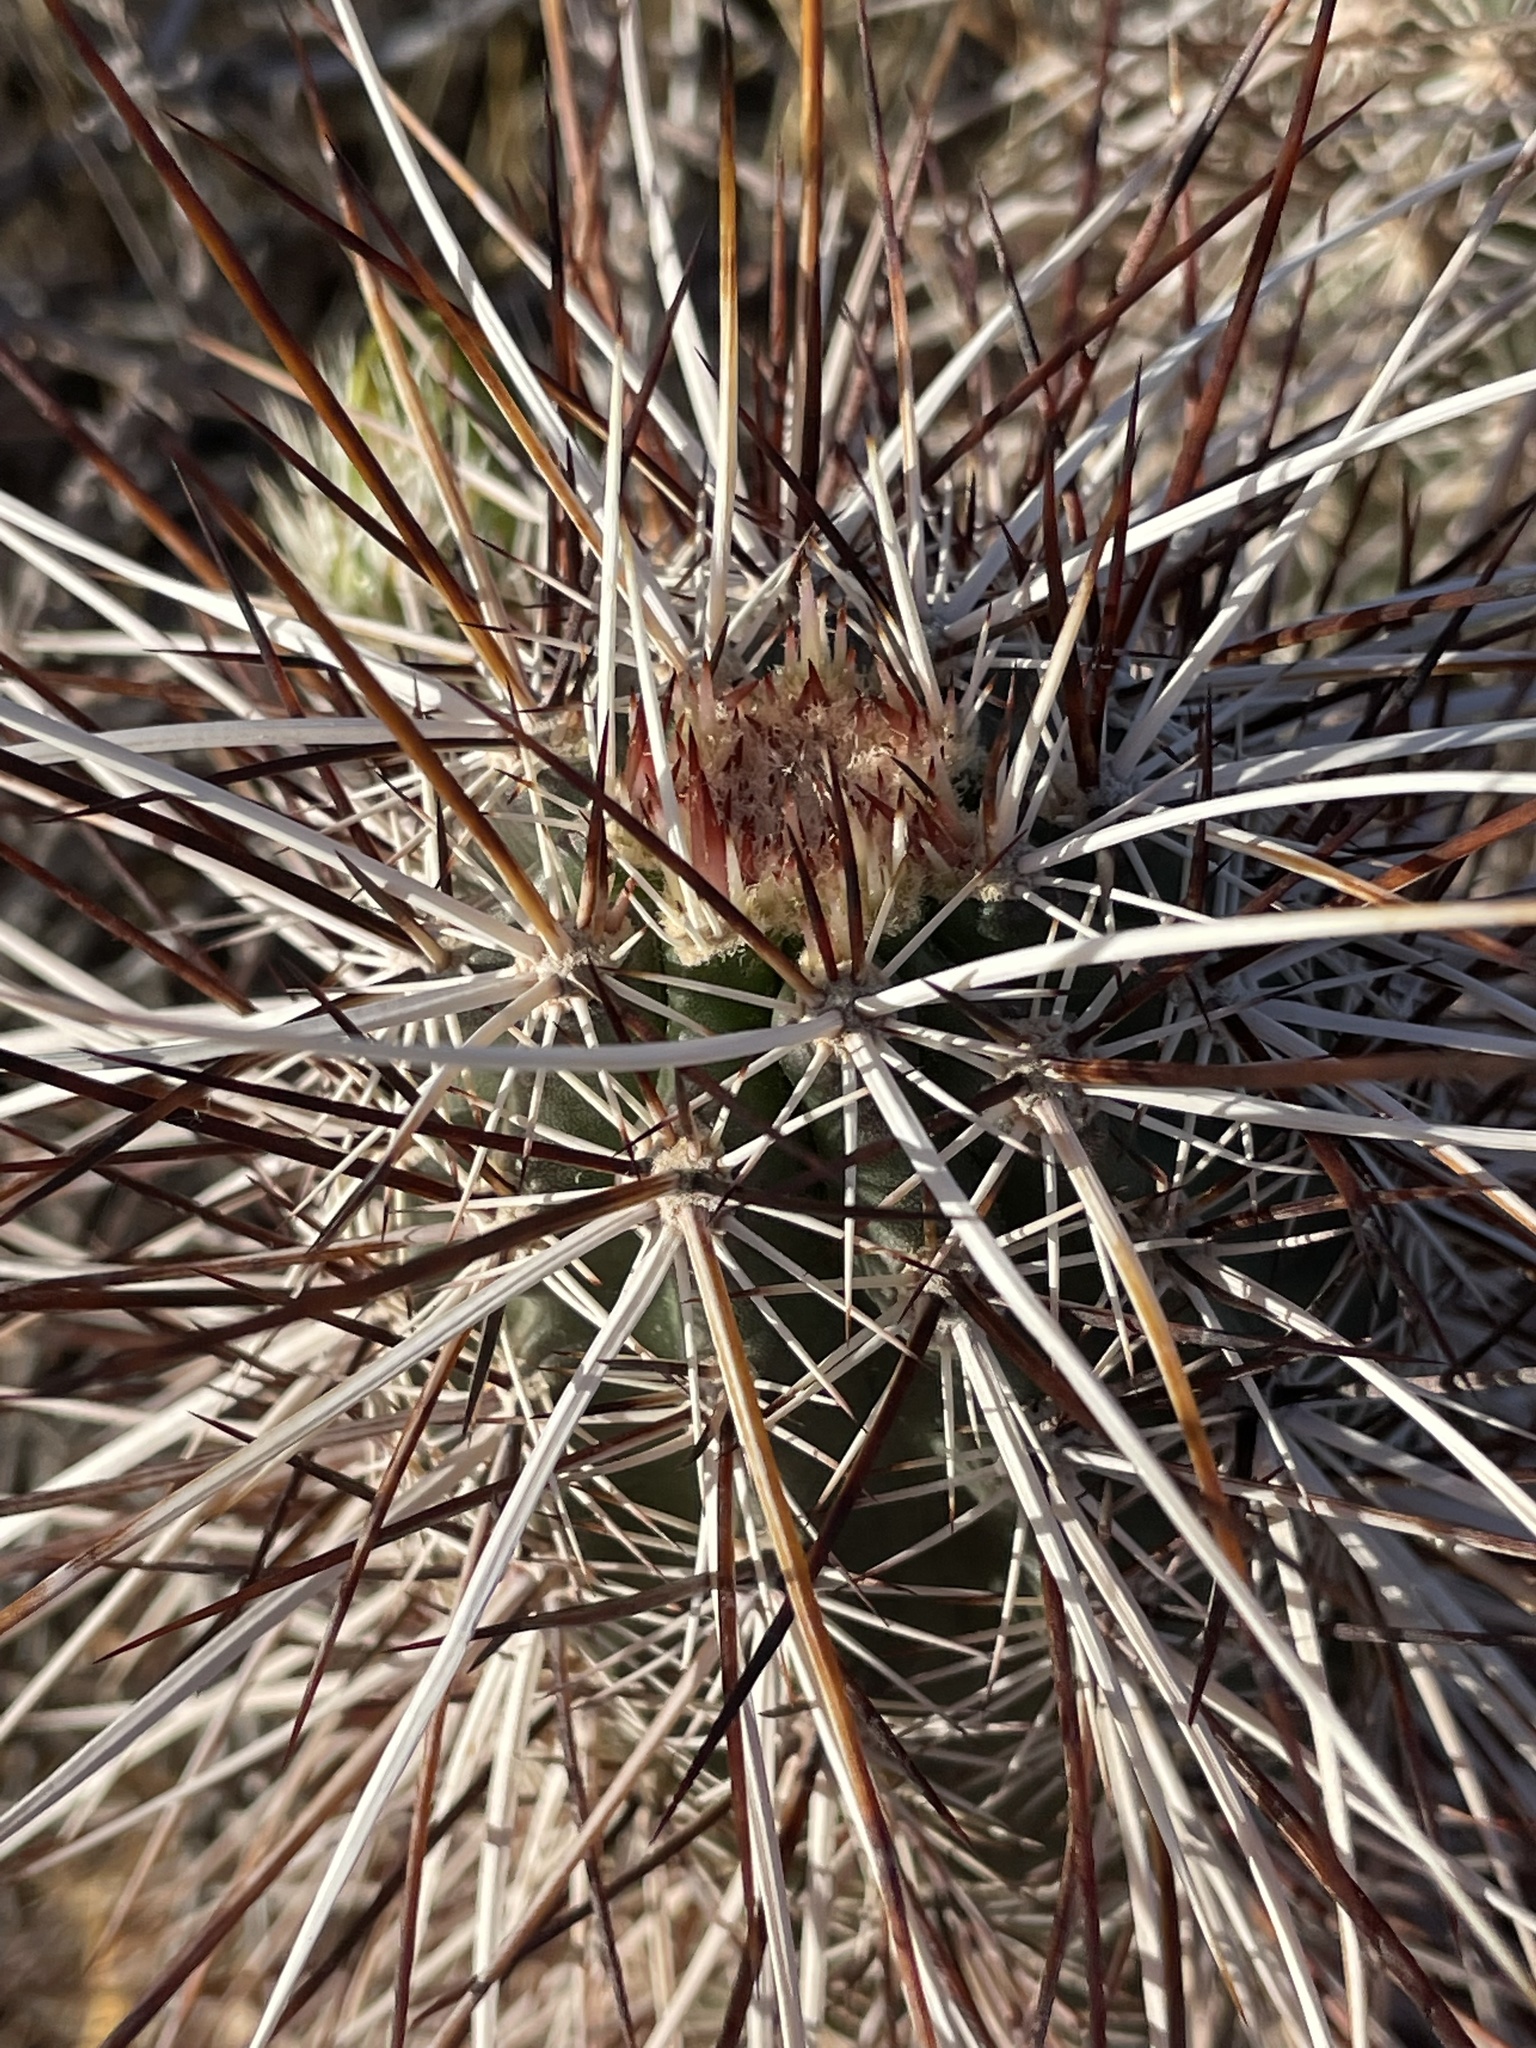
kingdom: Plantae
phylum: Tracheophyta
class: Magnoliopsida
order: Caryophyllales
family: Cactaceae
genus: Echinocereus
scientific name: Echinocereus engelmannii
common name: Engelmann's hedgehog cactus
